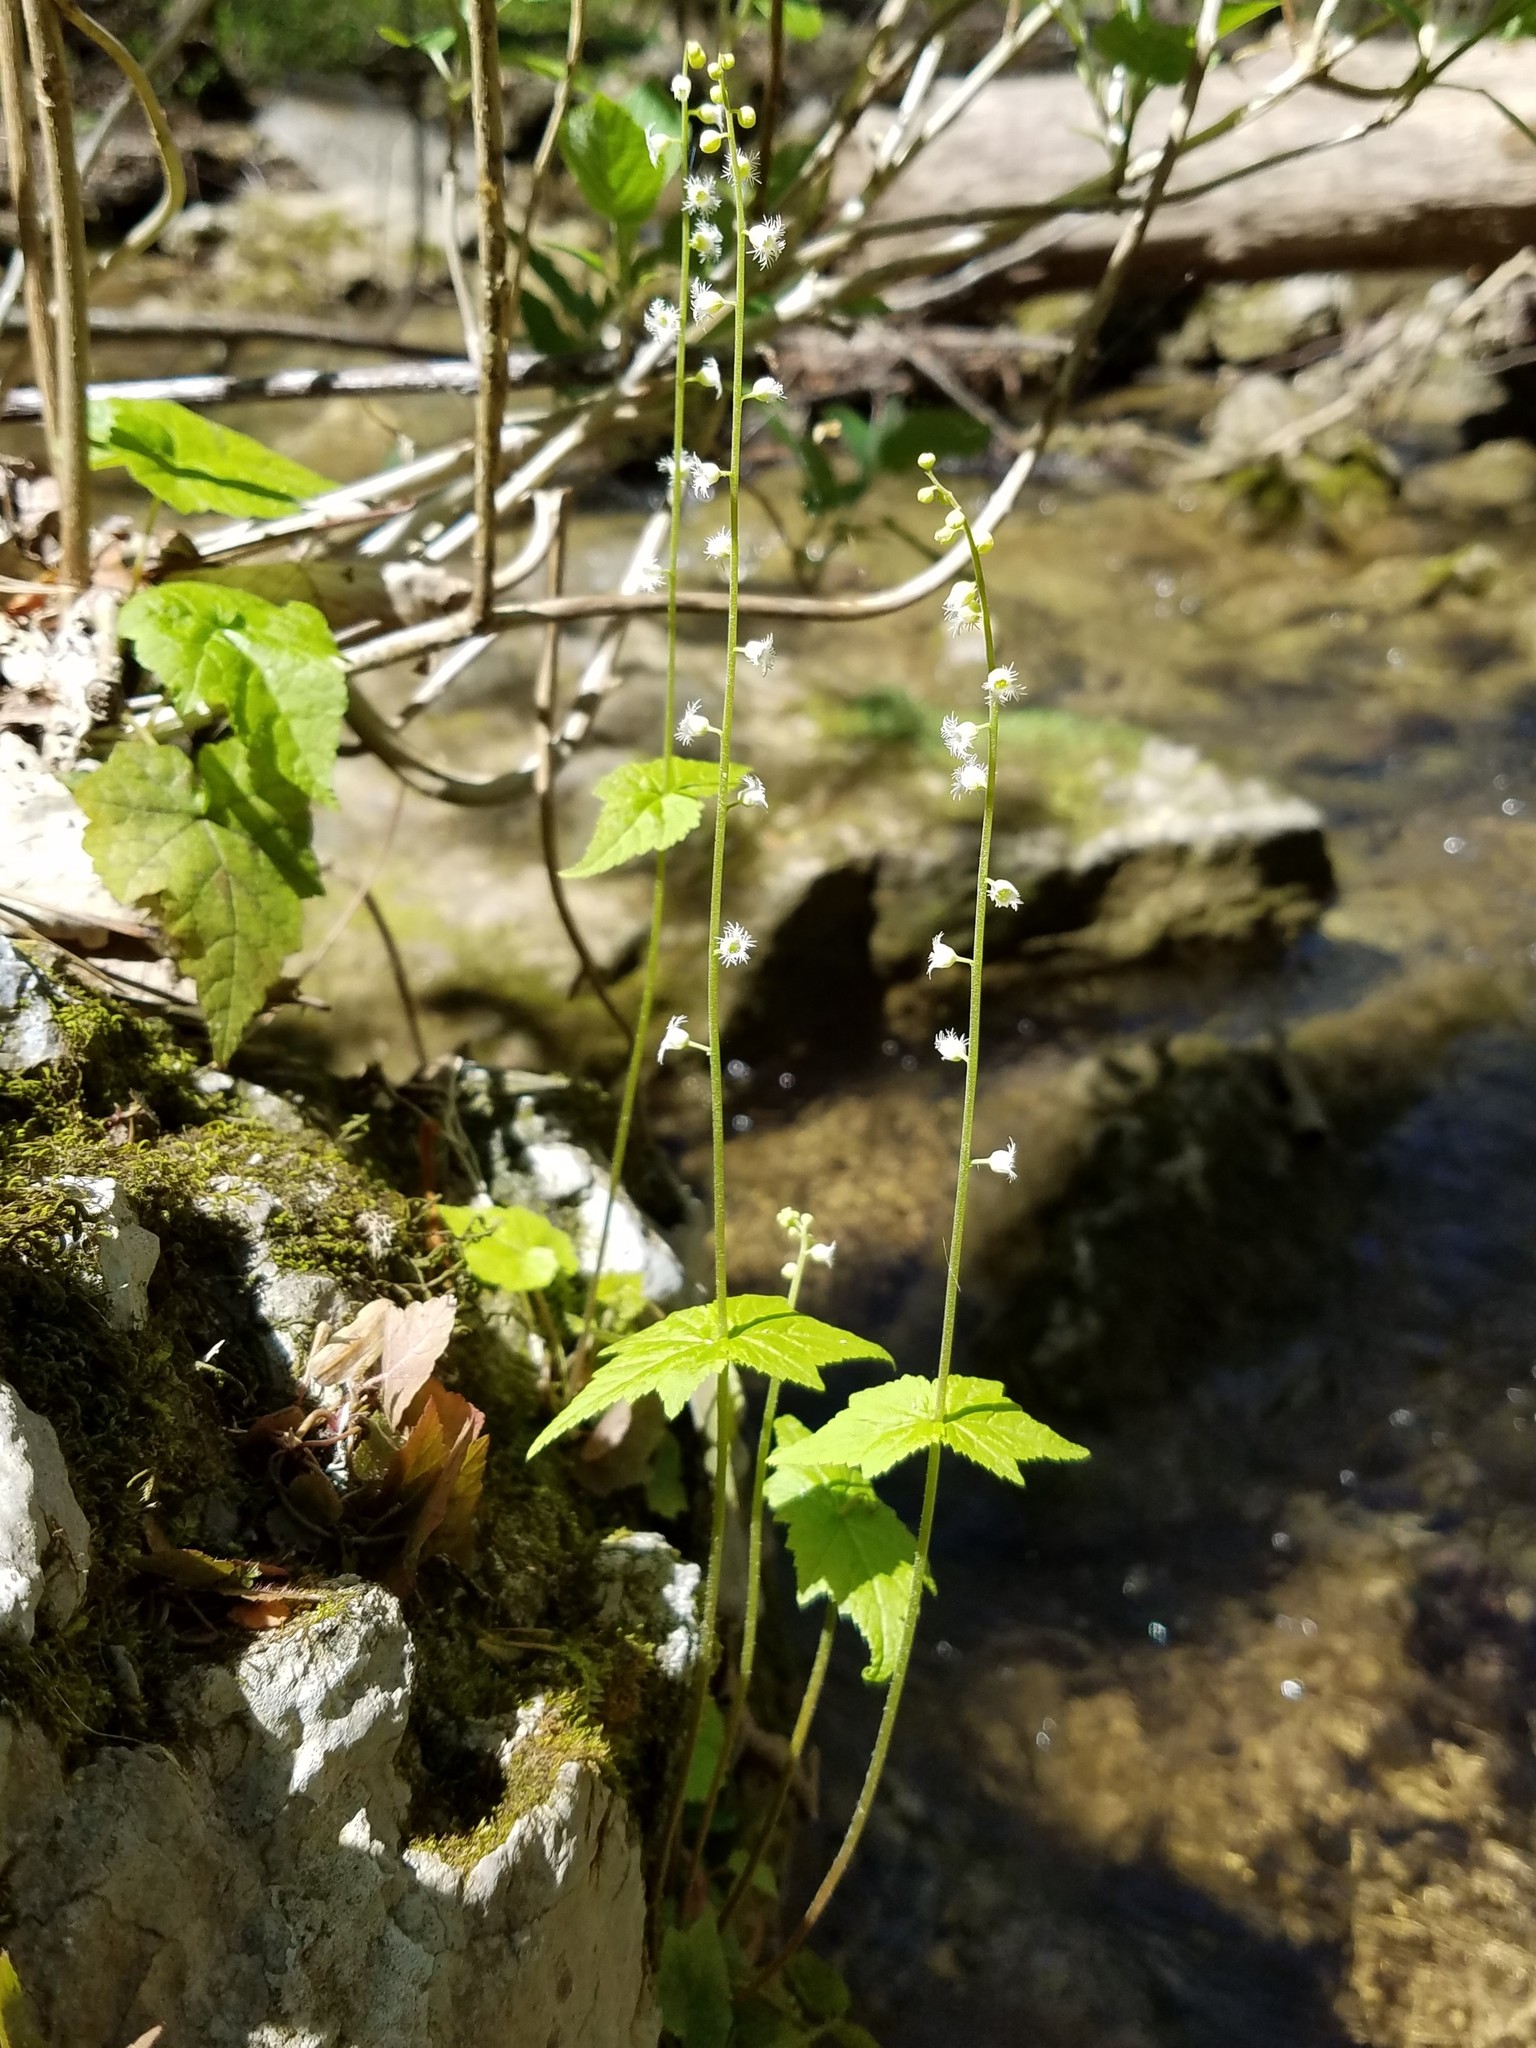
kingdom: Plantae
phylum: Tracheophyta
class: Magnoliopsida
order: Saxifragales
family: Saxifragaceae
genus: Mitella
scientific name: Mitella diphylla
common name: Coolwort
